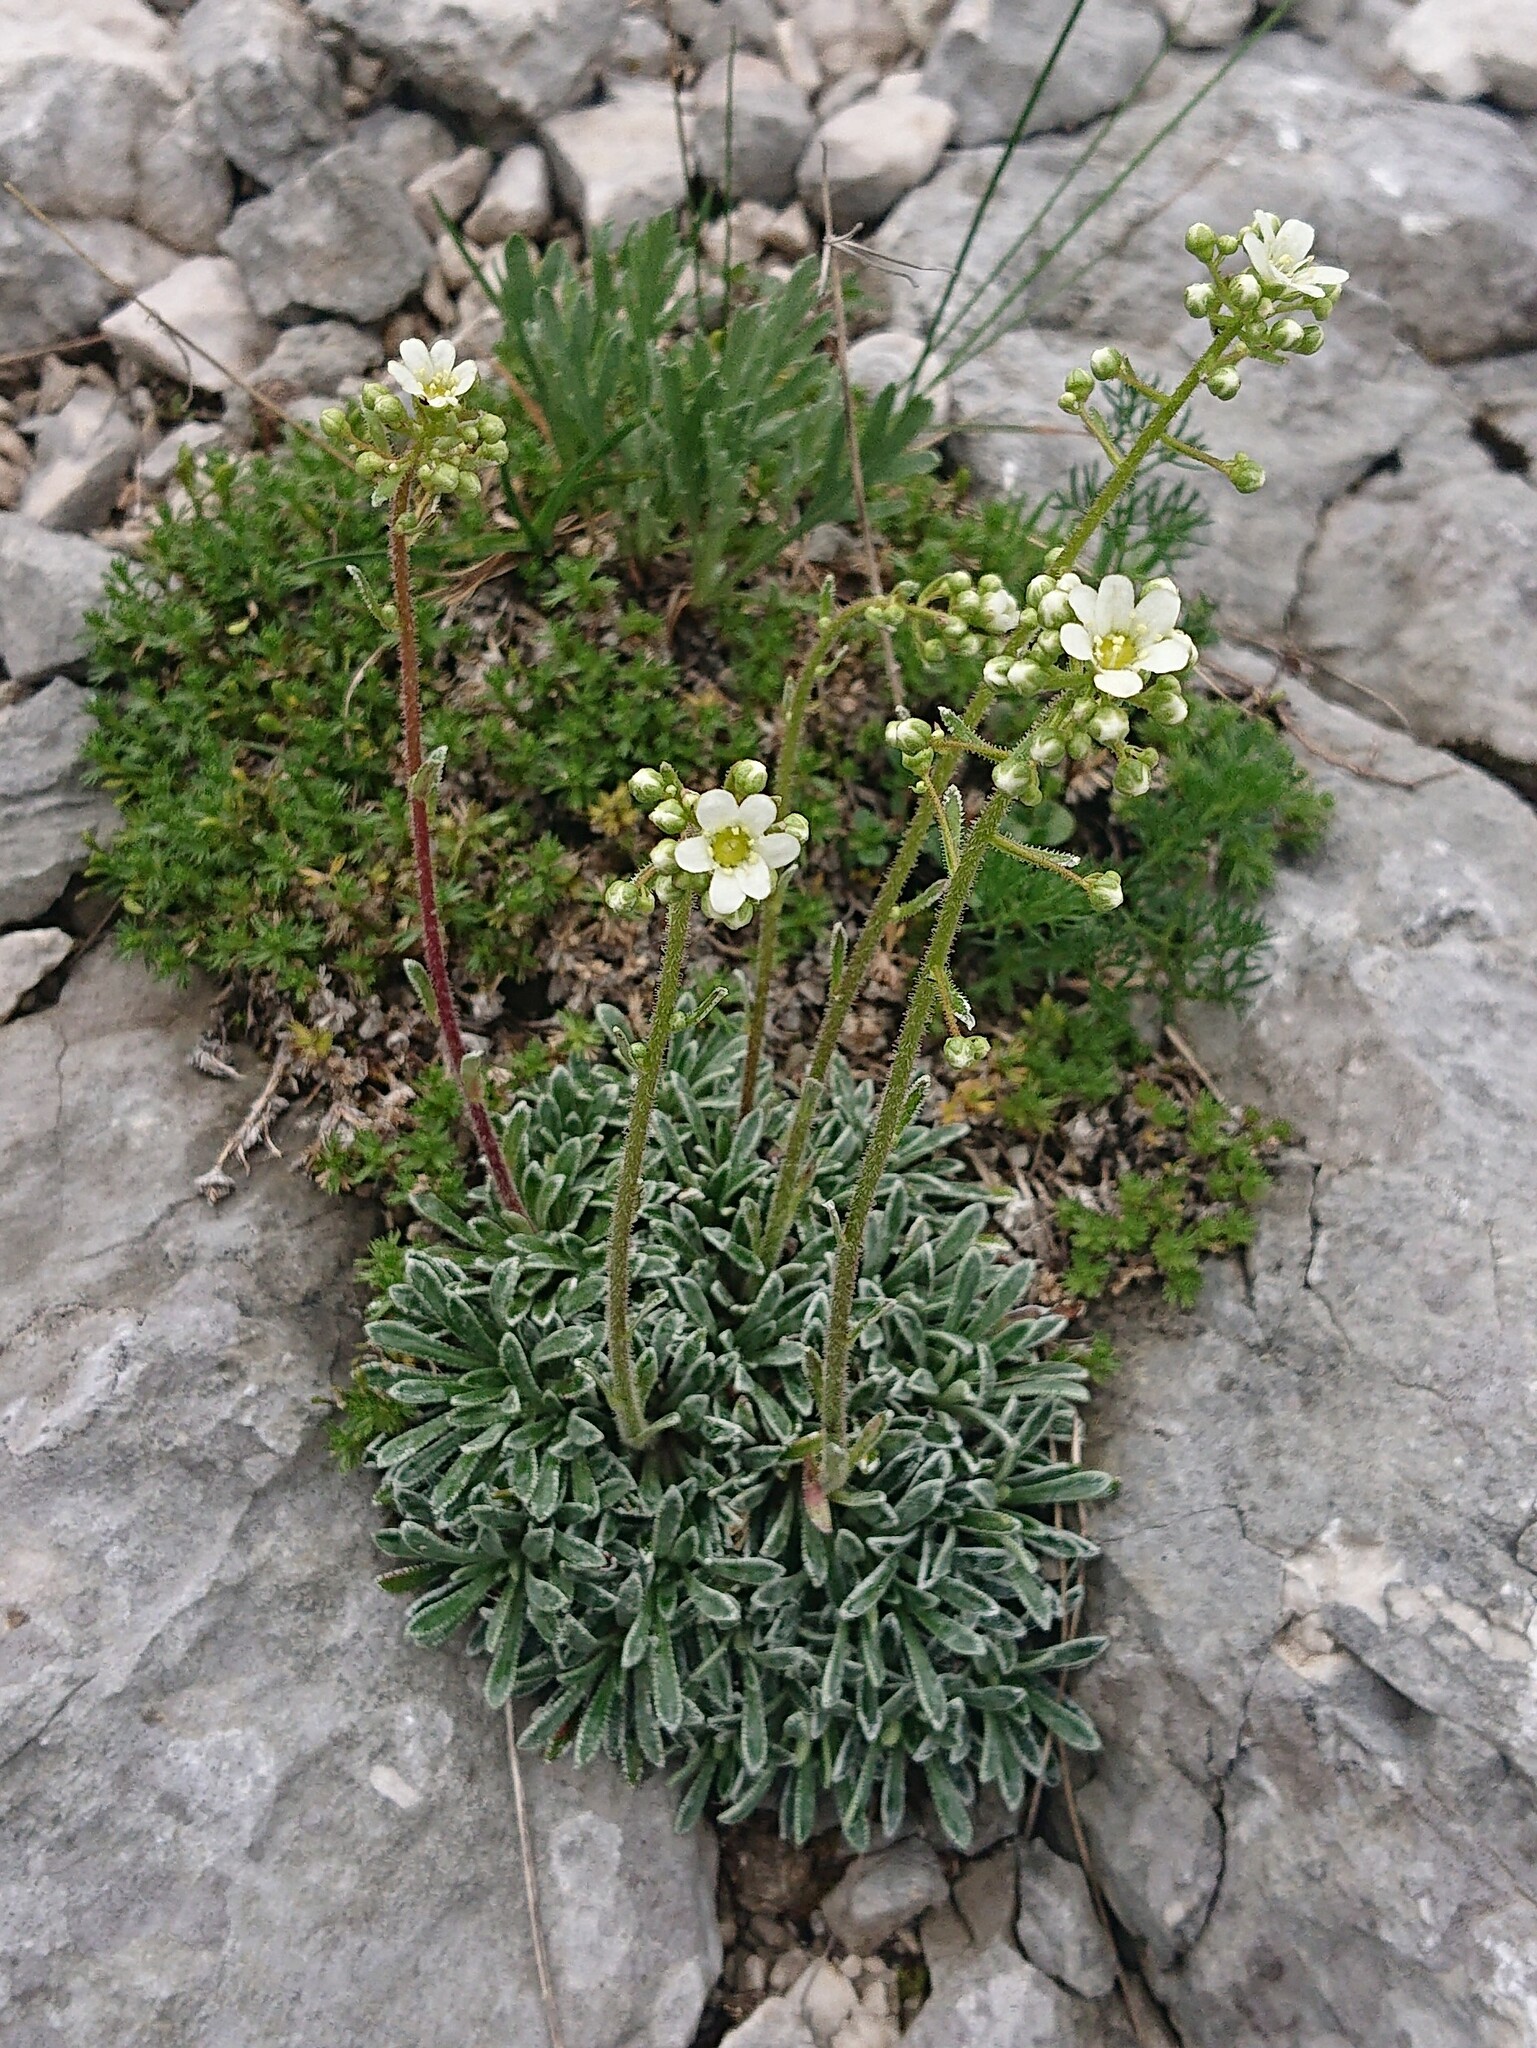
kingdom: Plantae
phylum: Tracheophyta
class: Magnoliopsida
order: Saxifragales
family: Saxifragaceae
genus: Saxifraga
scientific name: Saxifraga crustata
